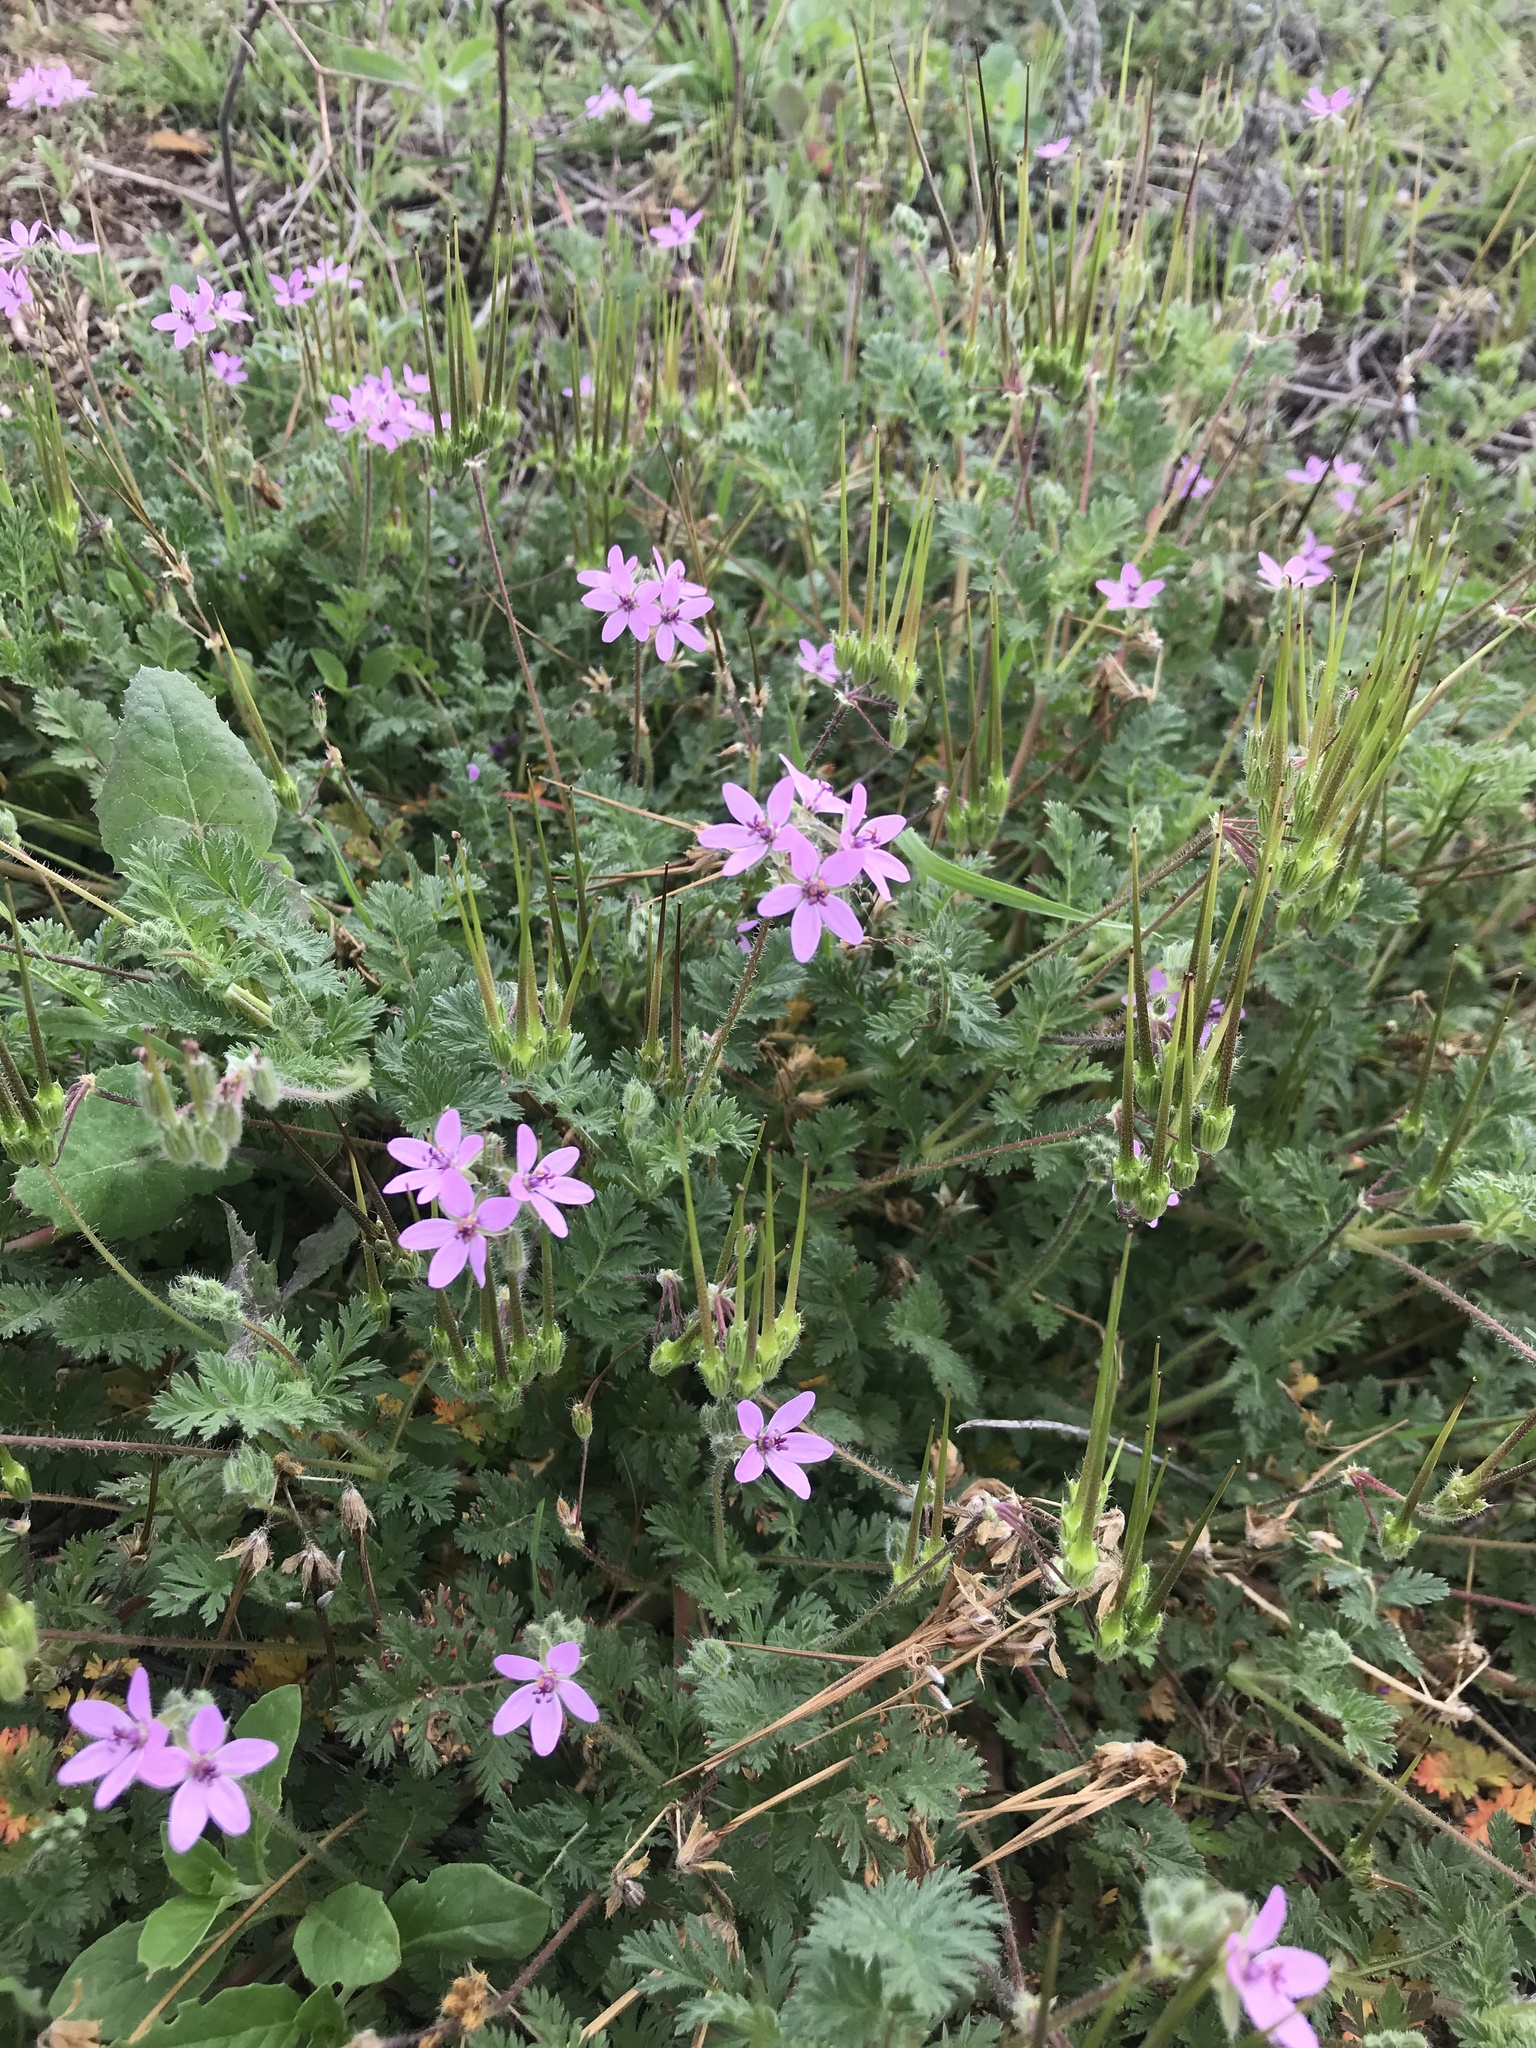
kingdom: Plantae
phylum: Tracheophyta
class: Magnoliopsida
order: Geraniales
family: Geraniaceae
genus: Erodium
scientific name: Erodium cicutarium
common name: Common stork's-bill
